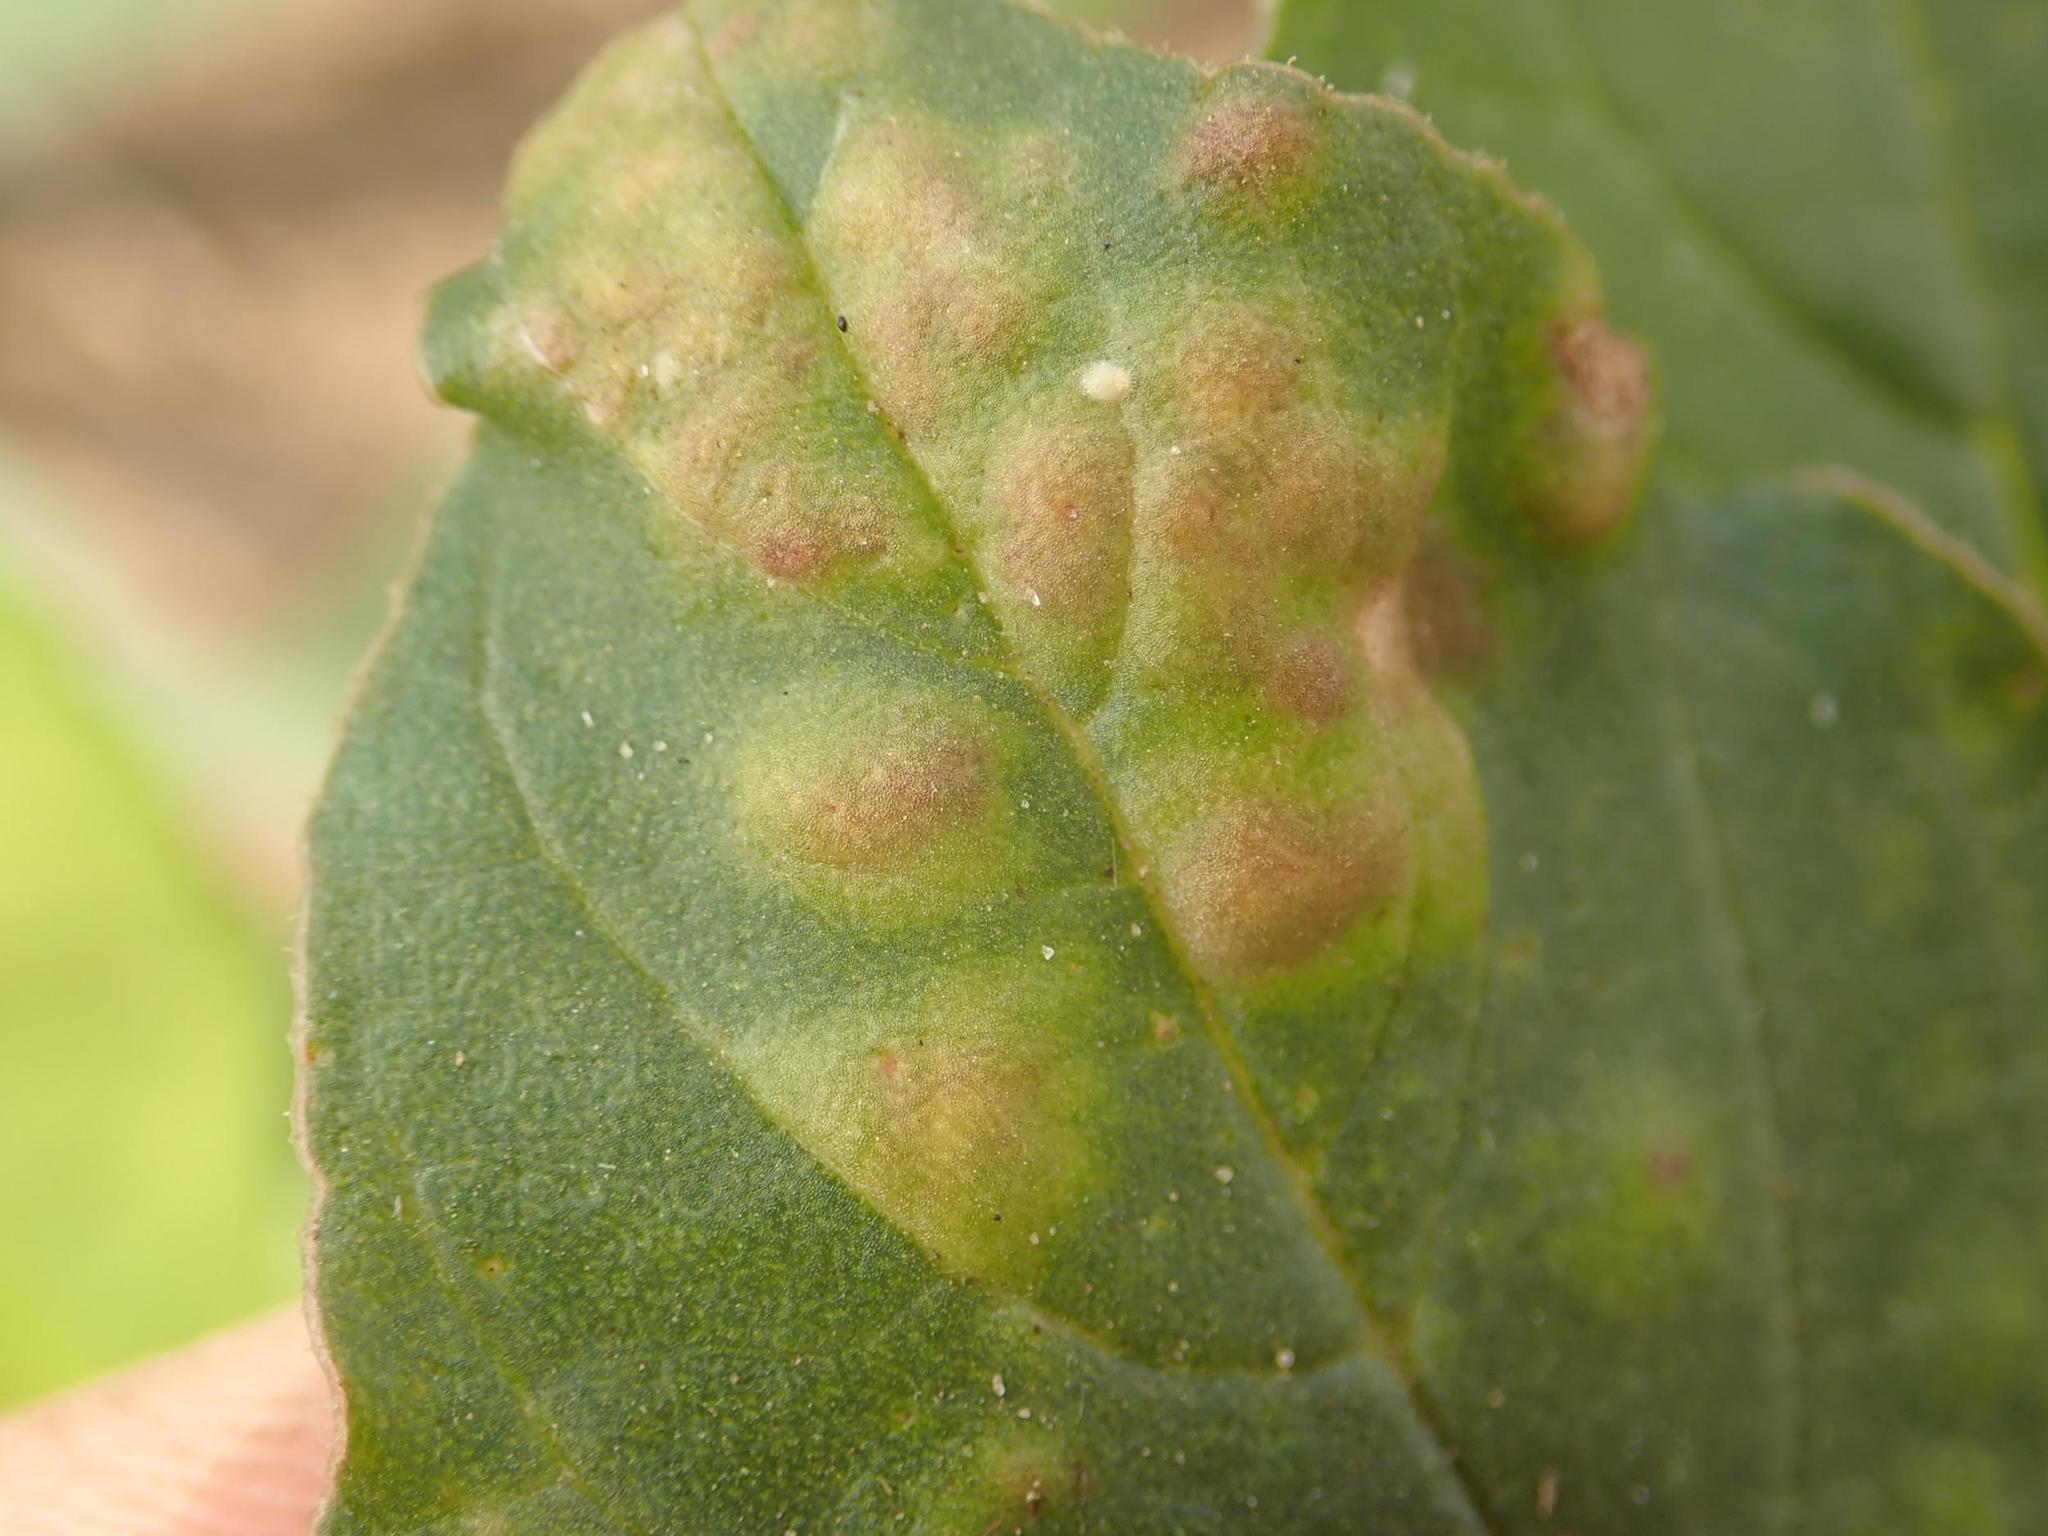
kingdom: Chromista
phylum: Oomycota
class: Peronosporea
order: Albuginales
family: Albuginaceae
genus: Wilsoniana
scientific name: Wilsoniana bliti
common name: White blister rust disease
